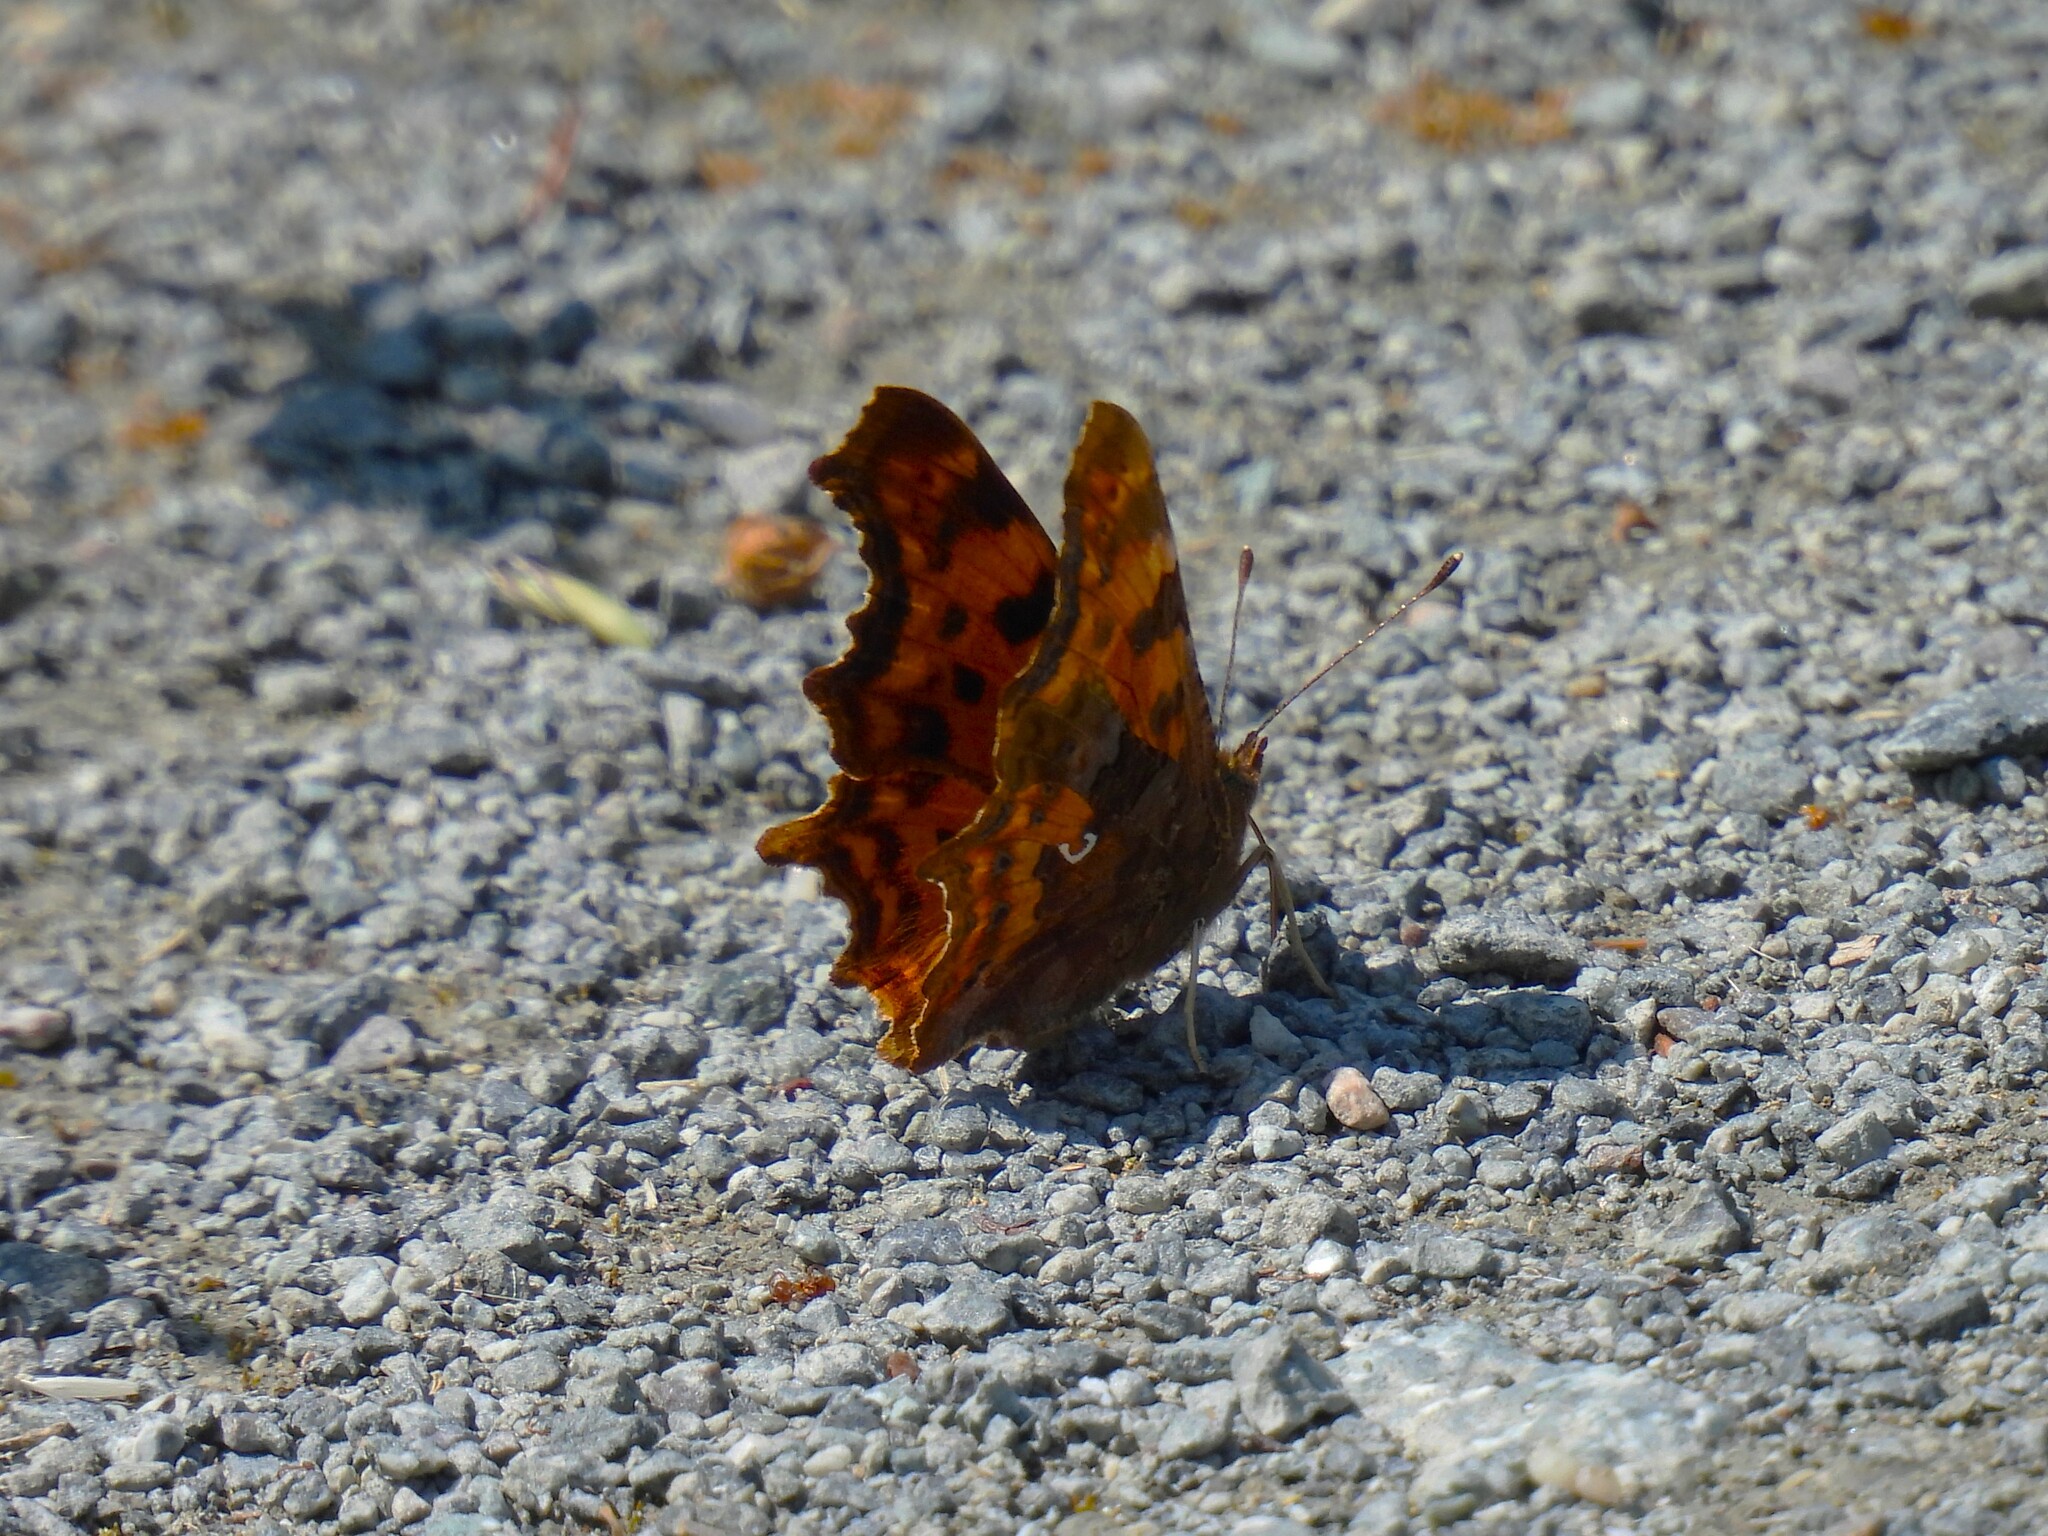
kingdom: Animalia
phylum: Arthropoda
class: Insecta
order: Lepidoptera
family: Nymphalidae
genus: Polygonia
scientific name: Polygonia c-album
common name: Comma
